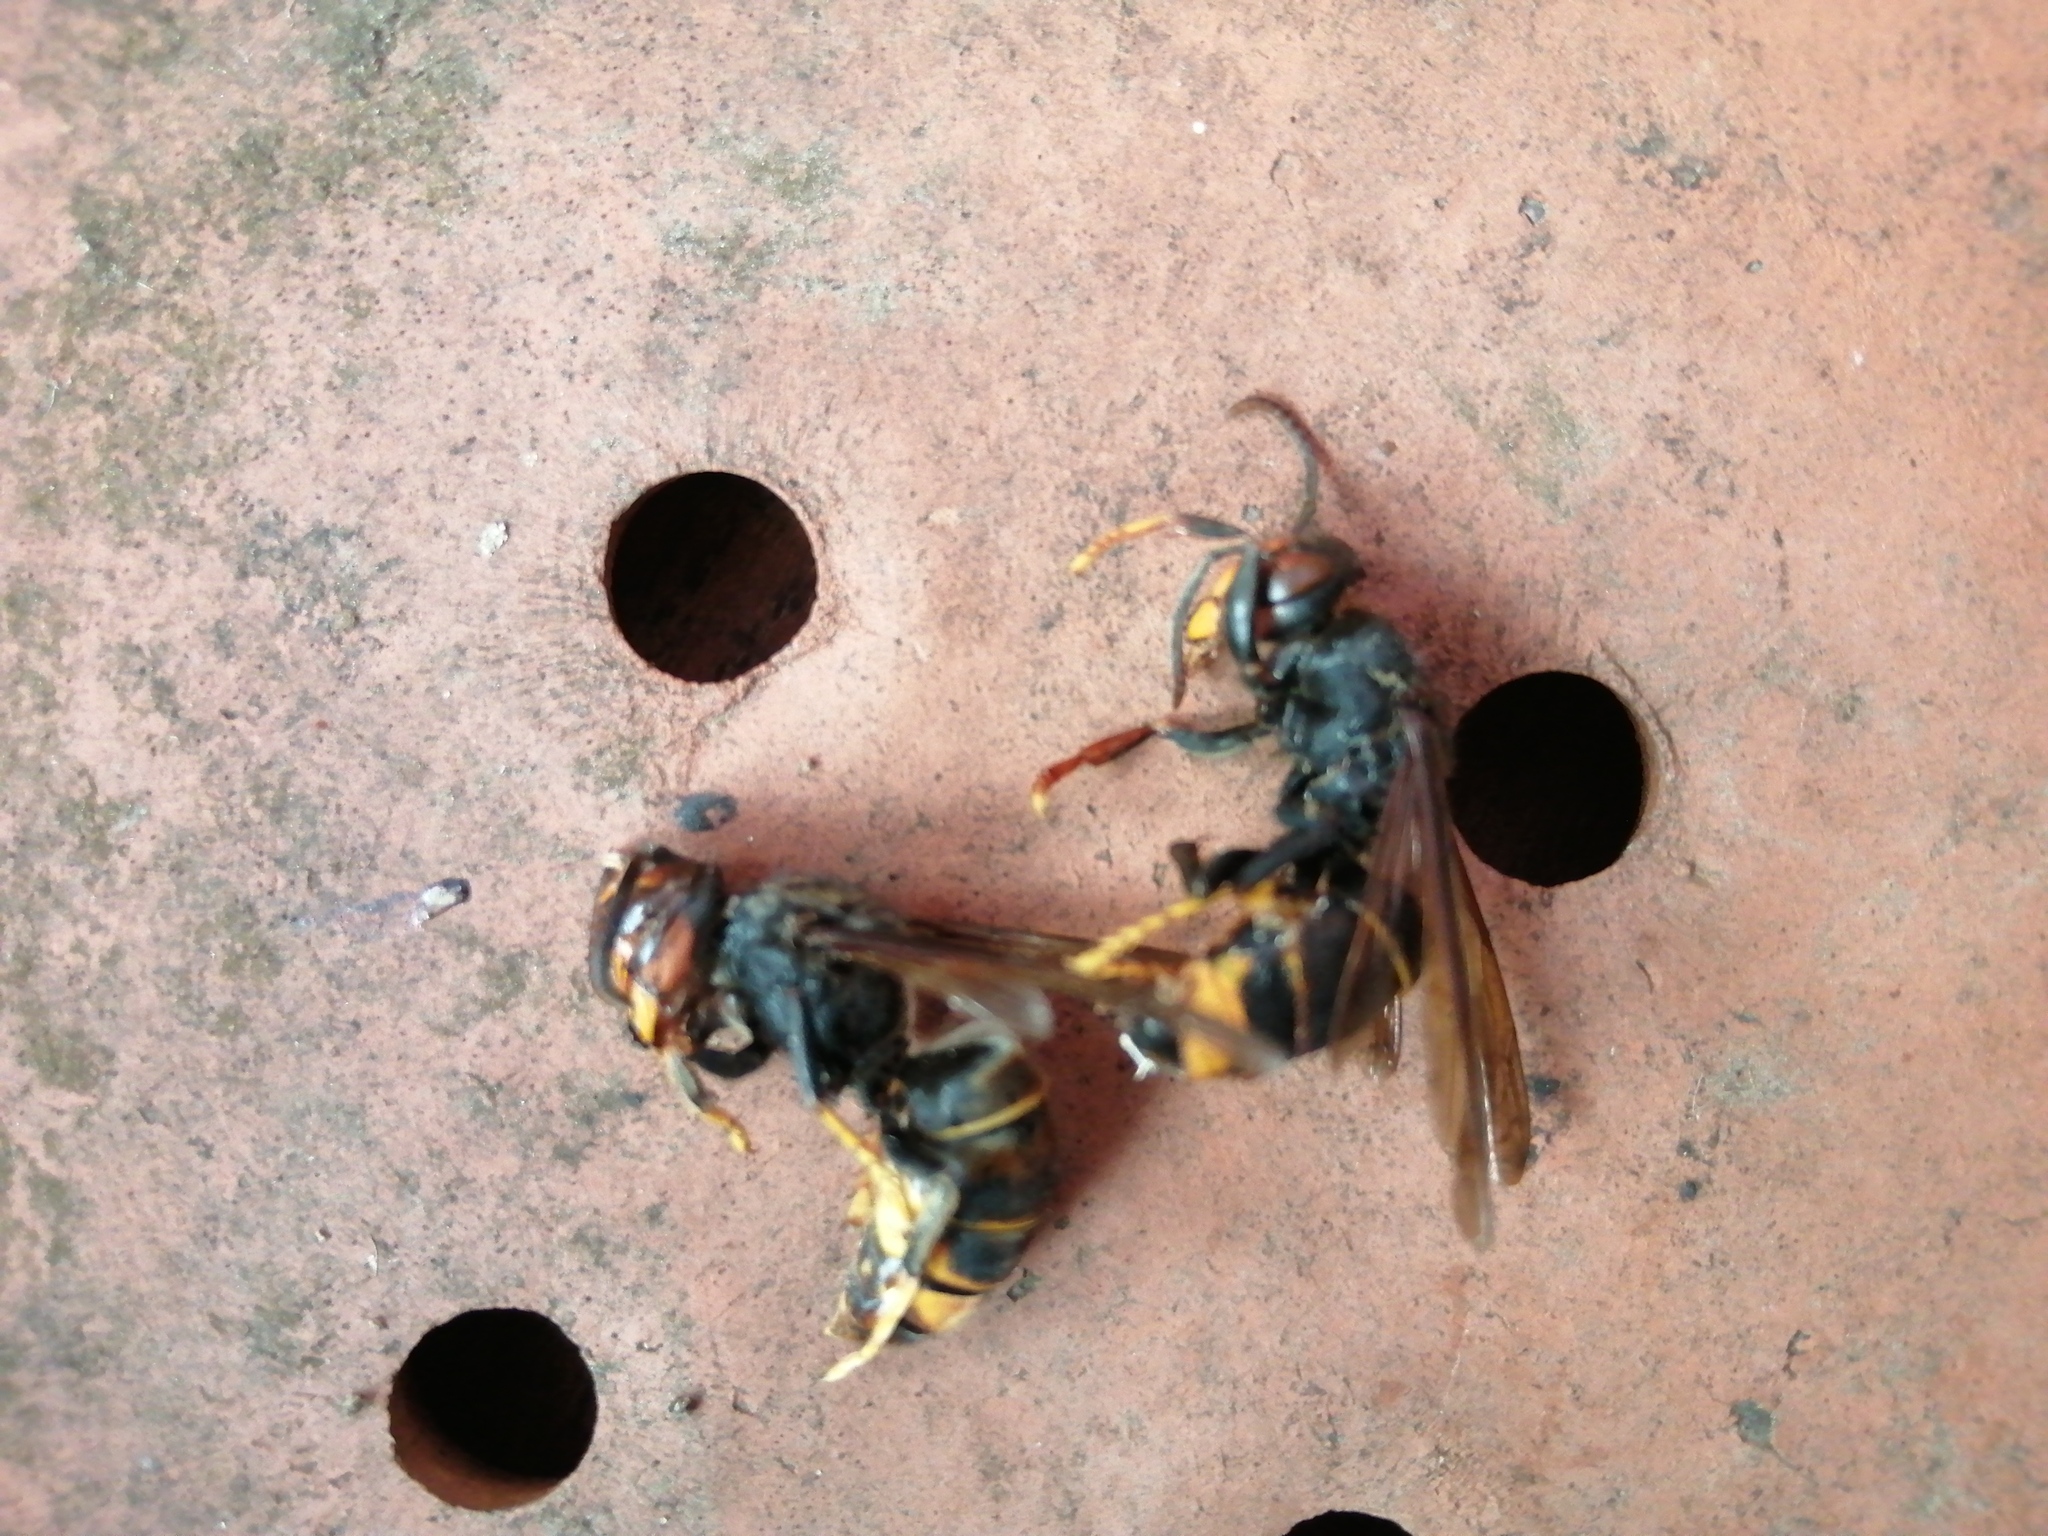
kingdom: Animalia
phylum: Arthropoda
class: Insecta
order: Hymenoptera
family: Vespidae
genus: Vespa
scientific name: Vespa velutina
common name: Asian hornet
